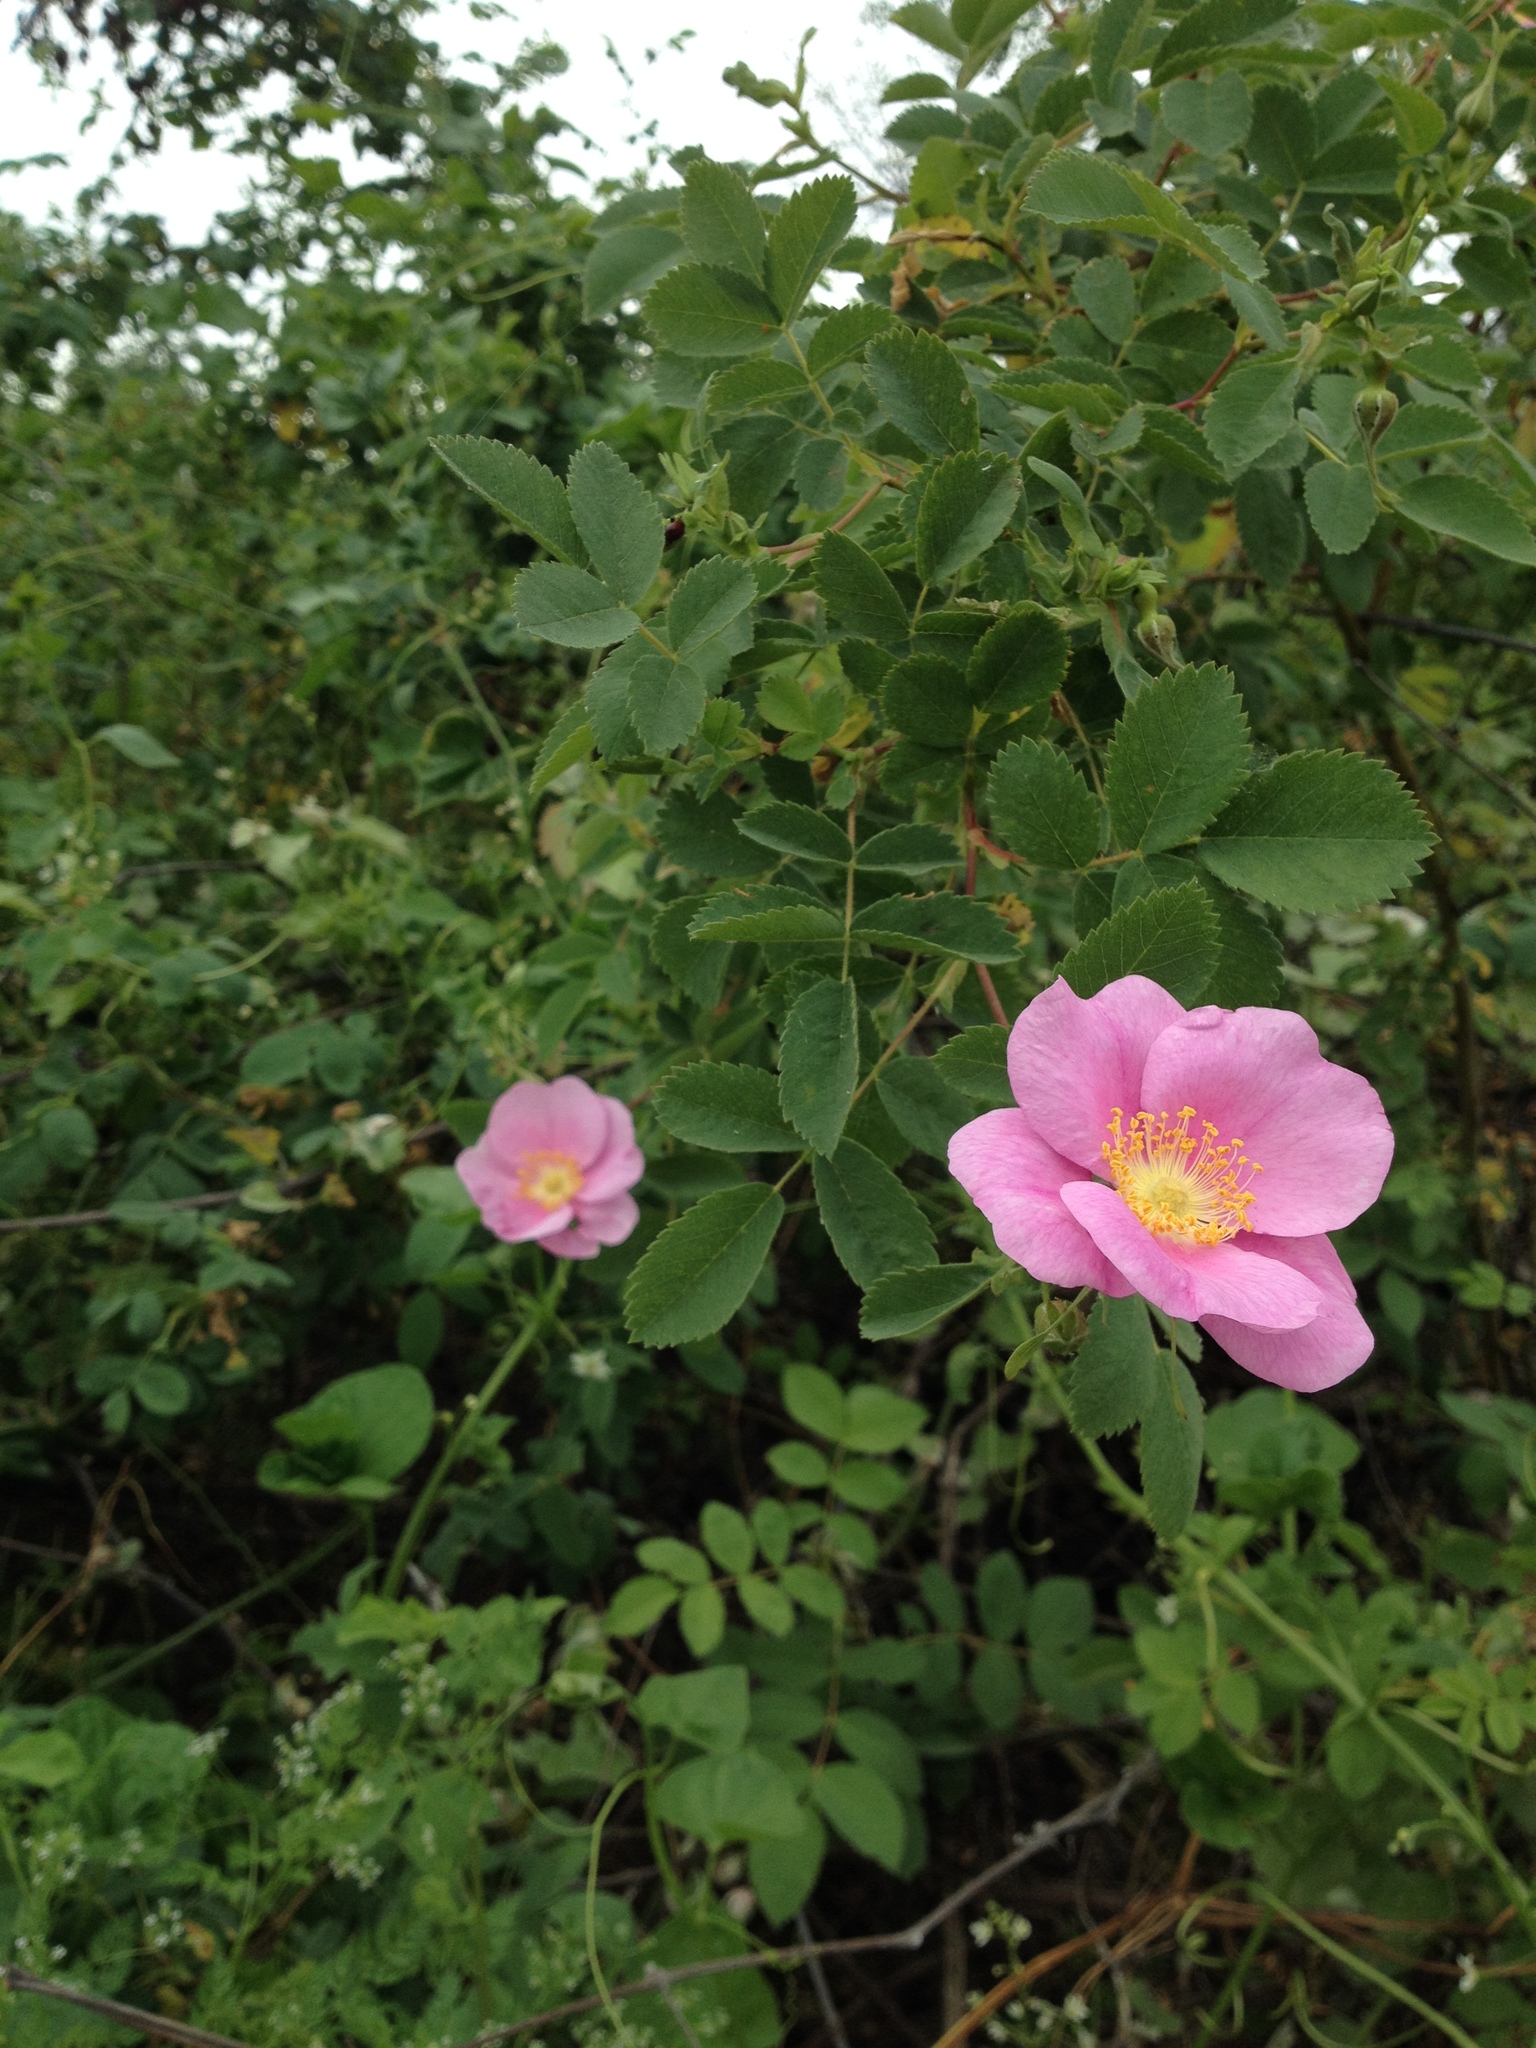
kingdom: Plantae
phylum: Tracheophyta
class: Magnoliopsida
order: Rosales
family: Rosaceae
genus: Rosa
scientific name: Rosa californica
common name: California rose
